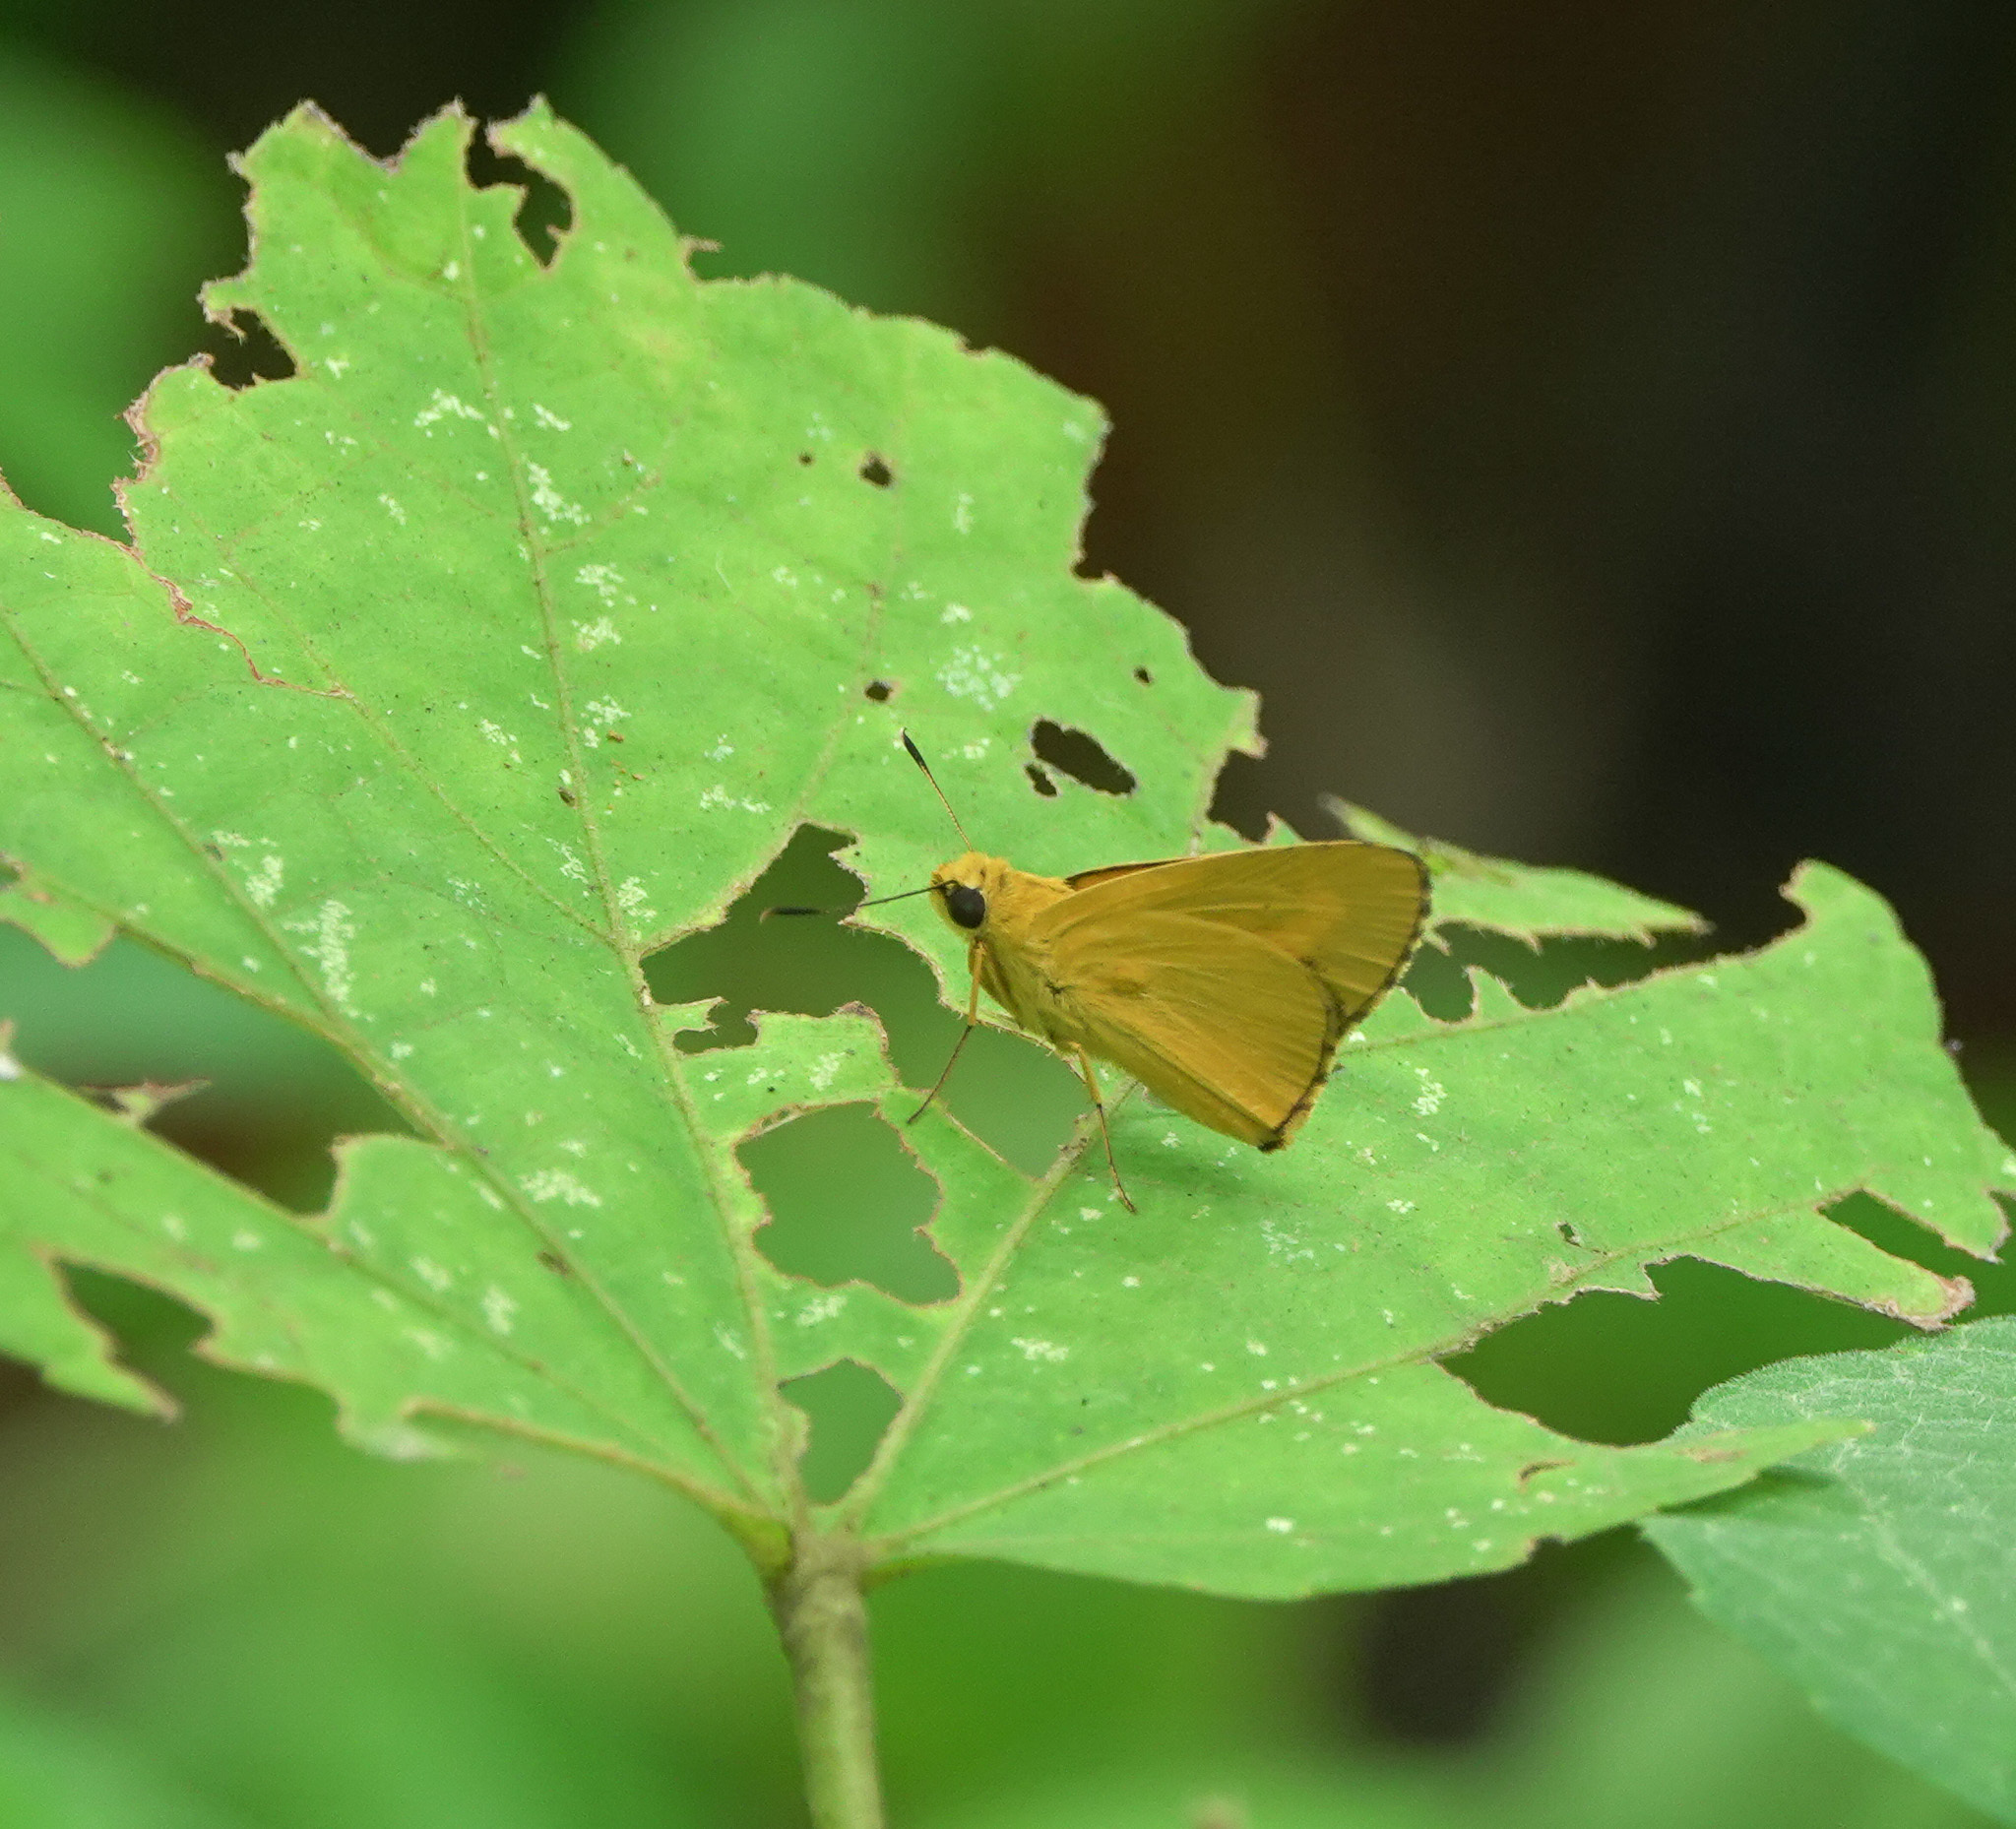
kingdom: Animalia
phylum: Arthropoda
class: Insecta
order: Lepidoptera
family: Hesperiidae
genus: Cupitha
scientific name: Cupitha purreea
